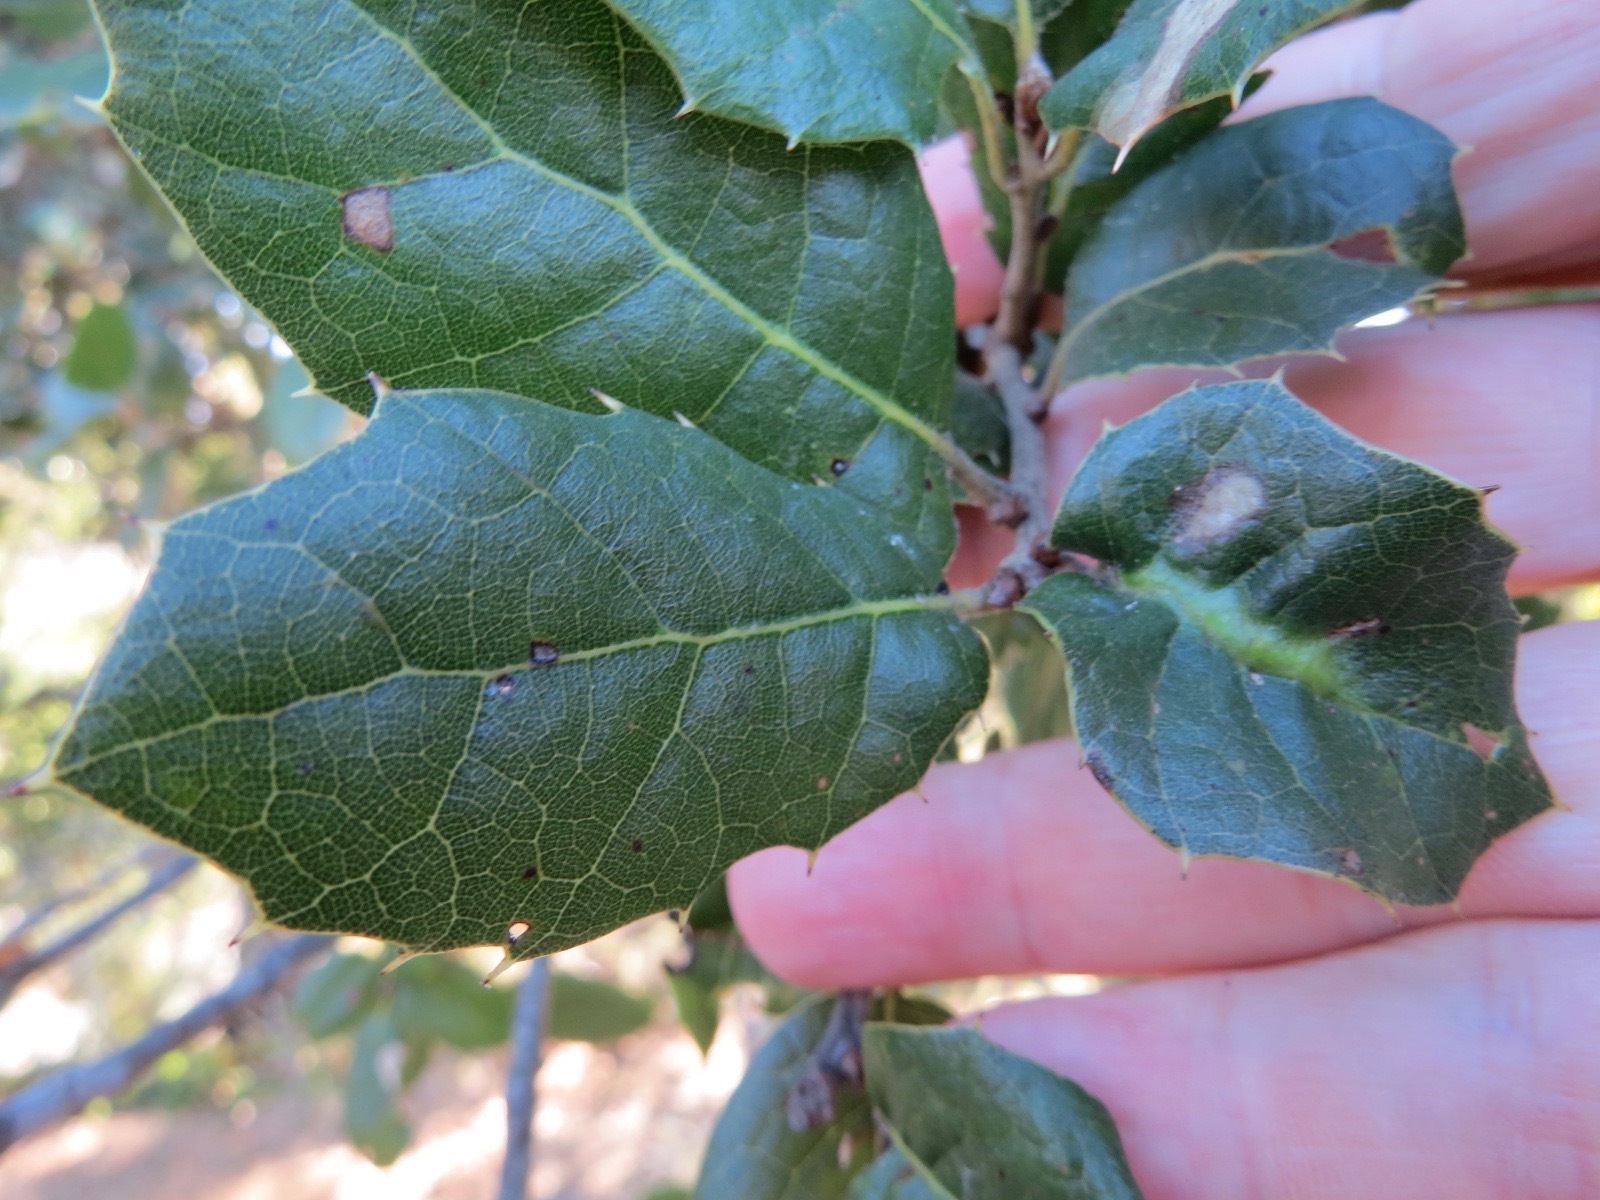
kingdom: Animalia
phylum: Arthropoda
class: Insecta
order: Hymenoptera
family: Cynipidae
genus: Melikaiella
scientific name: Melikaiella
